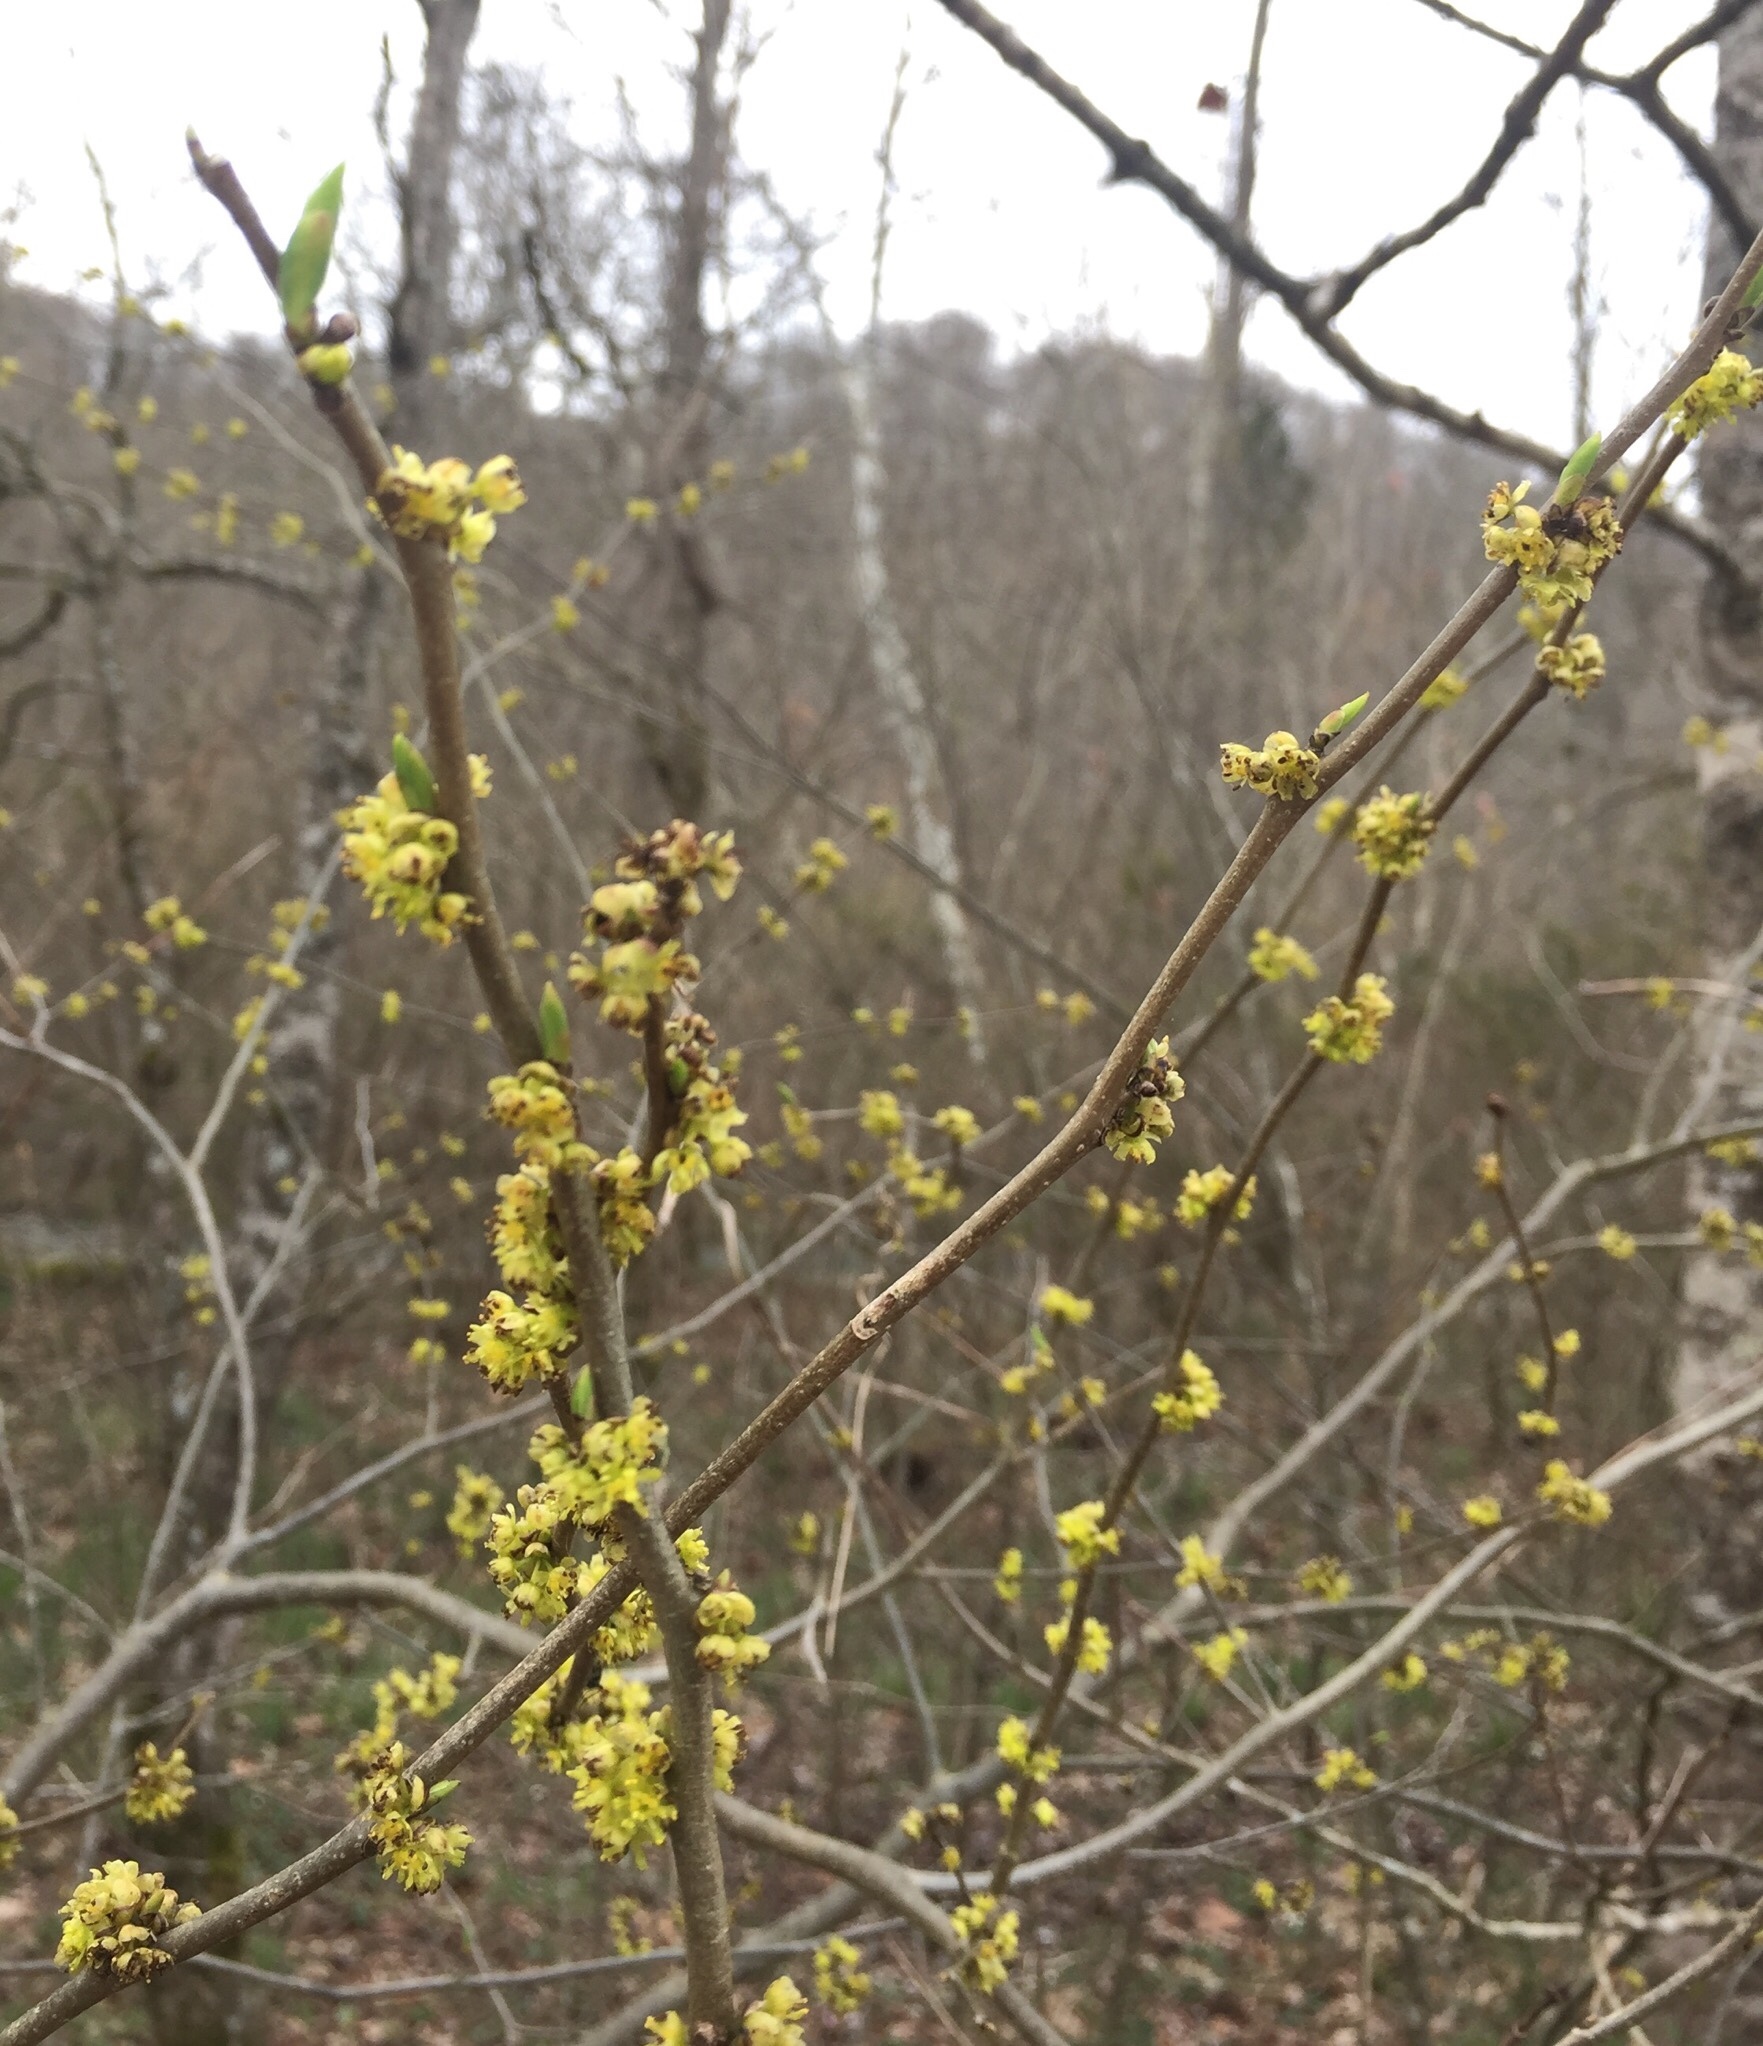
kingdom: Plantae
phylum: Tracheophyta
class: Magnoliopsida
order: Laurales
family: Lauraceae
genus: Lindera
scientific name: Lindera benzoin
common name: Spicebush
